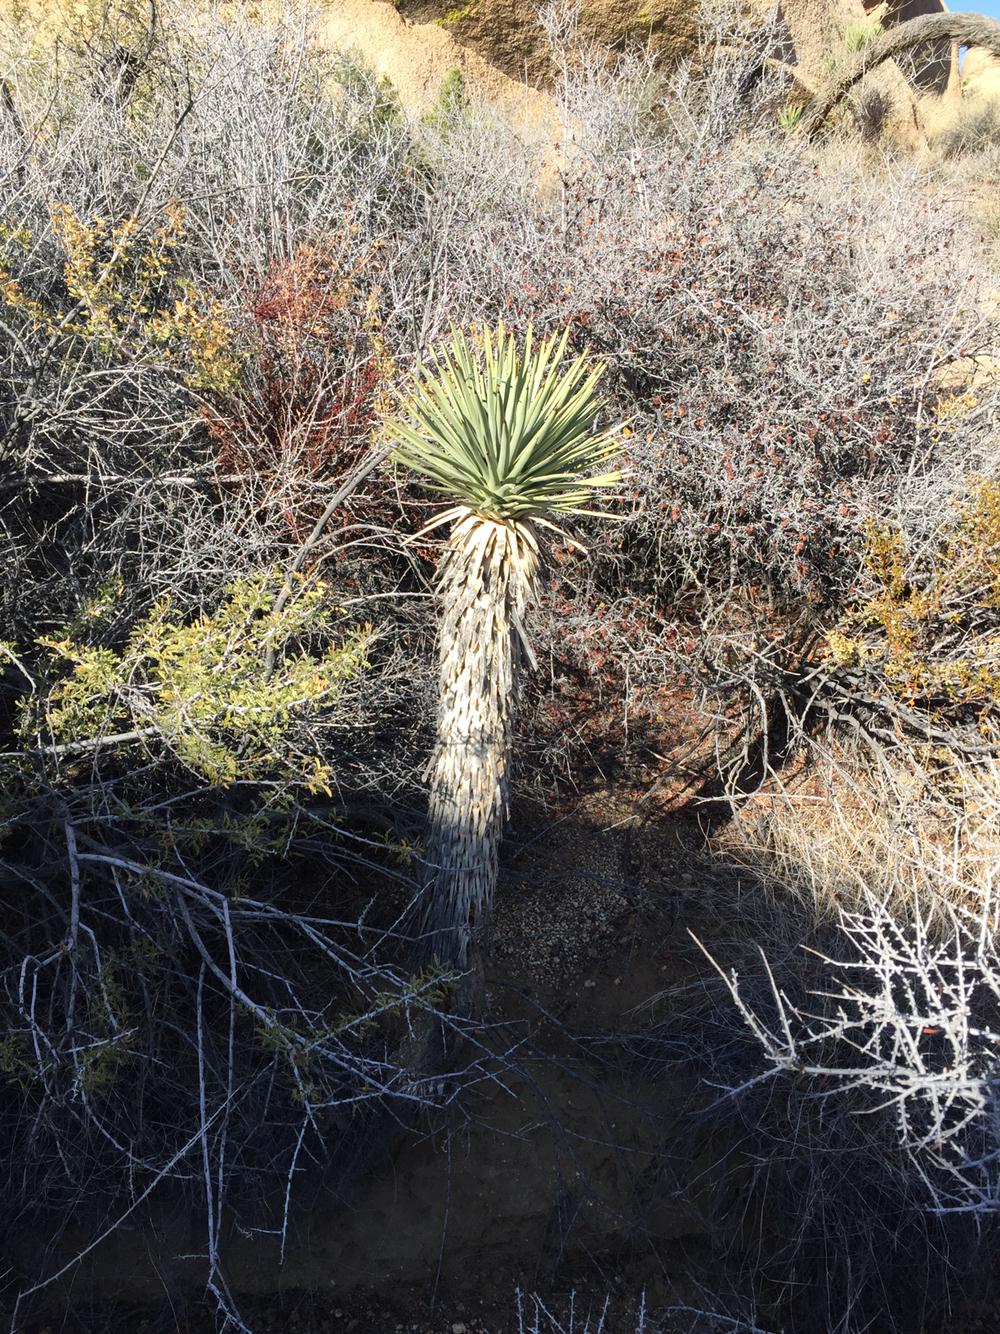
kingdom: Plantae
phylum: Tracheophyta
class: Liliopsida
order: Asparagales
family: Asparagaceae
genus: Yucca
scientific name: Yucca brevifolia
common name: Joshua tree
